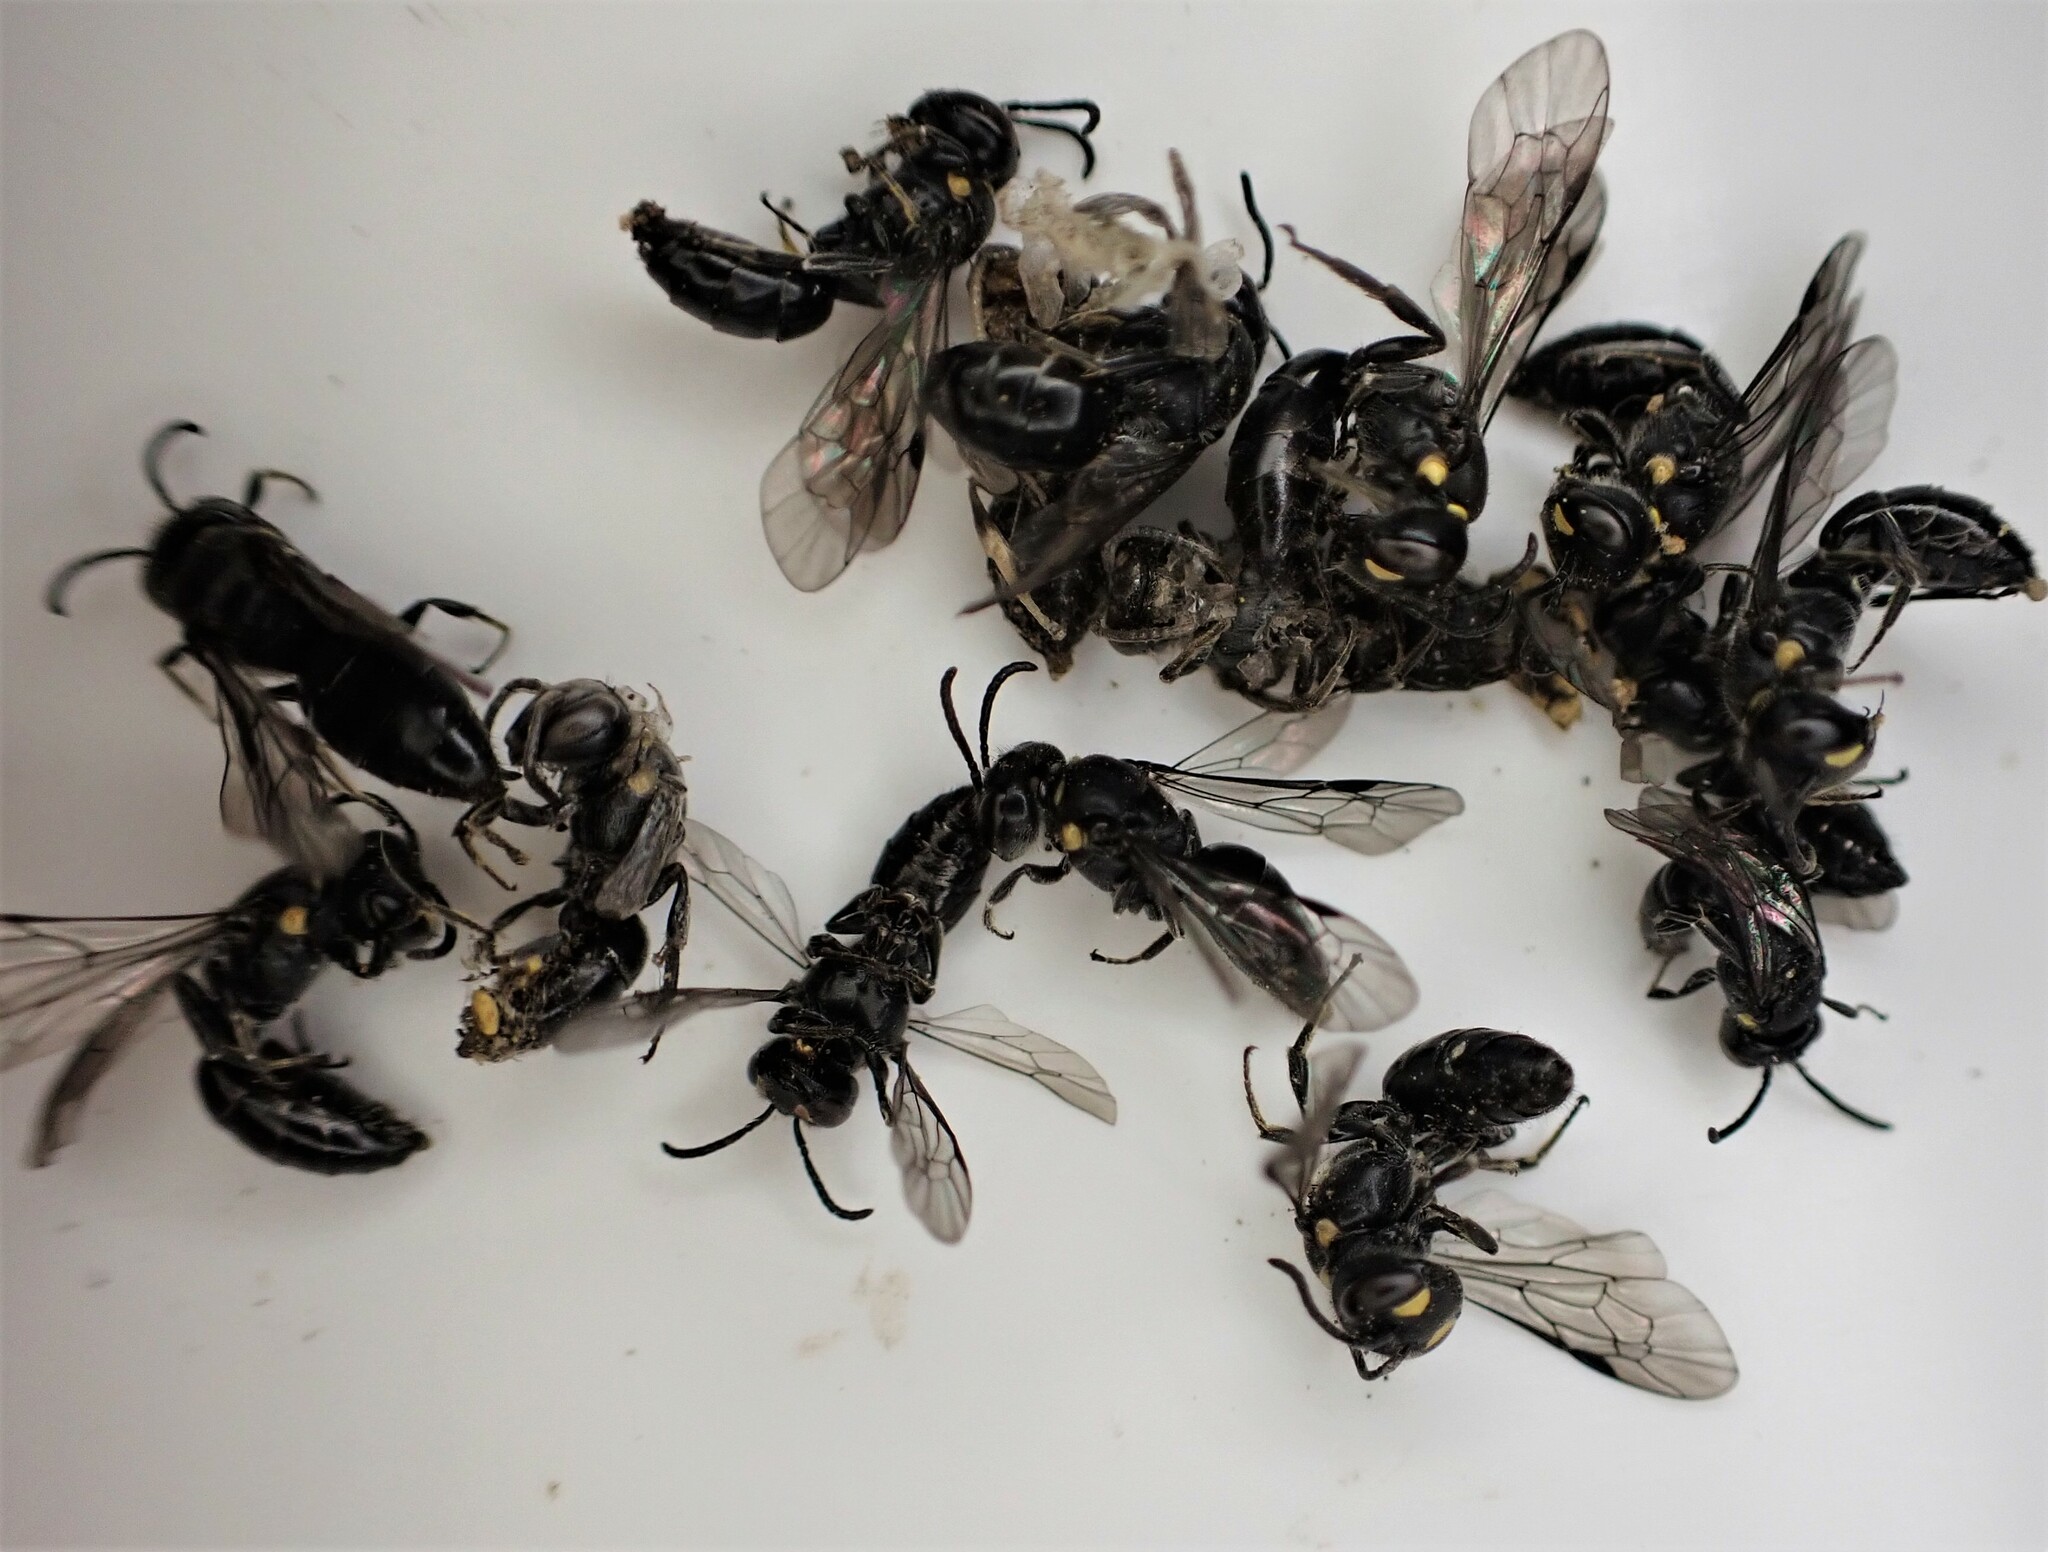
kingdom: Animalia
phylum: Arthropoda
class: Insecta
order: Hymenoptera
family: Colletidae
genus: Hylaeus
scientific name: Hylaeus relegatus
